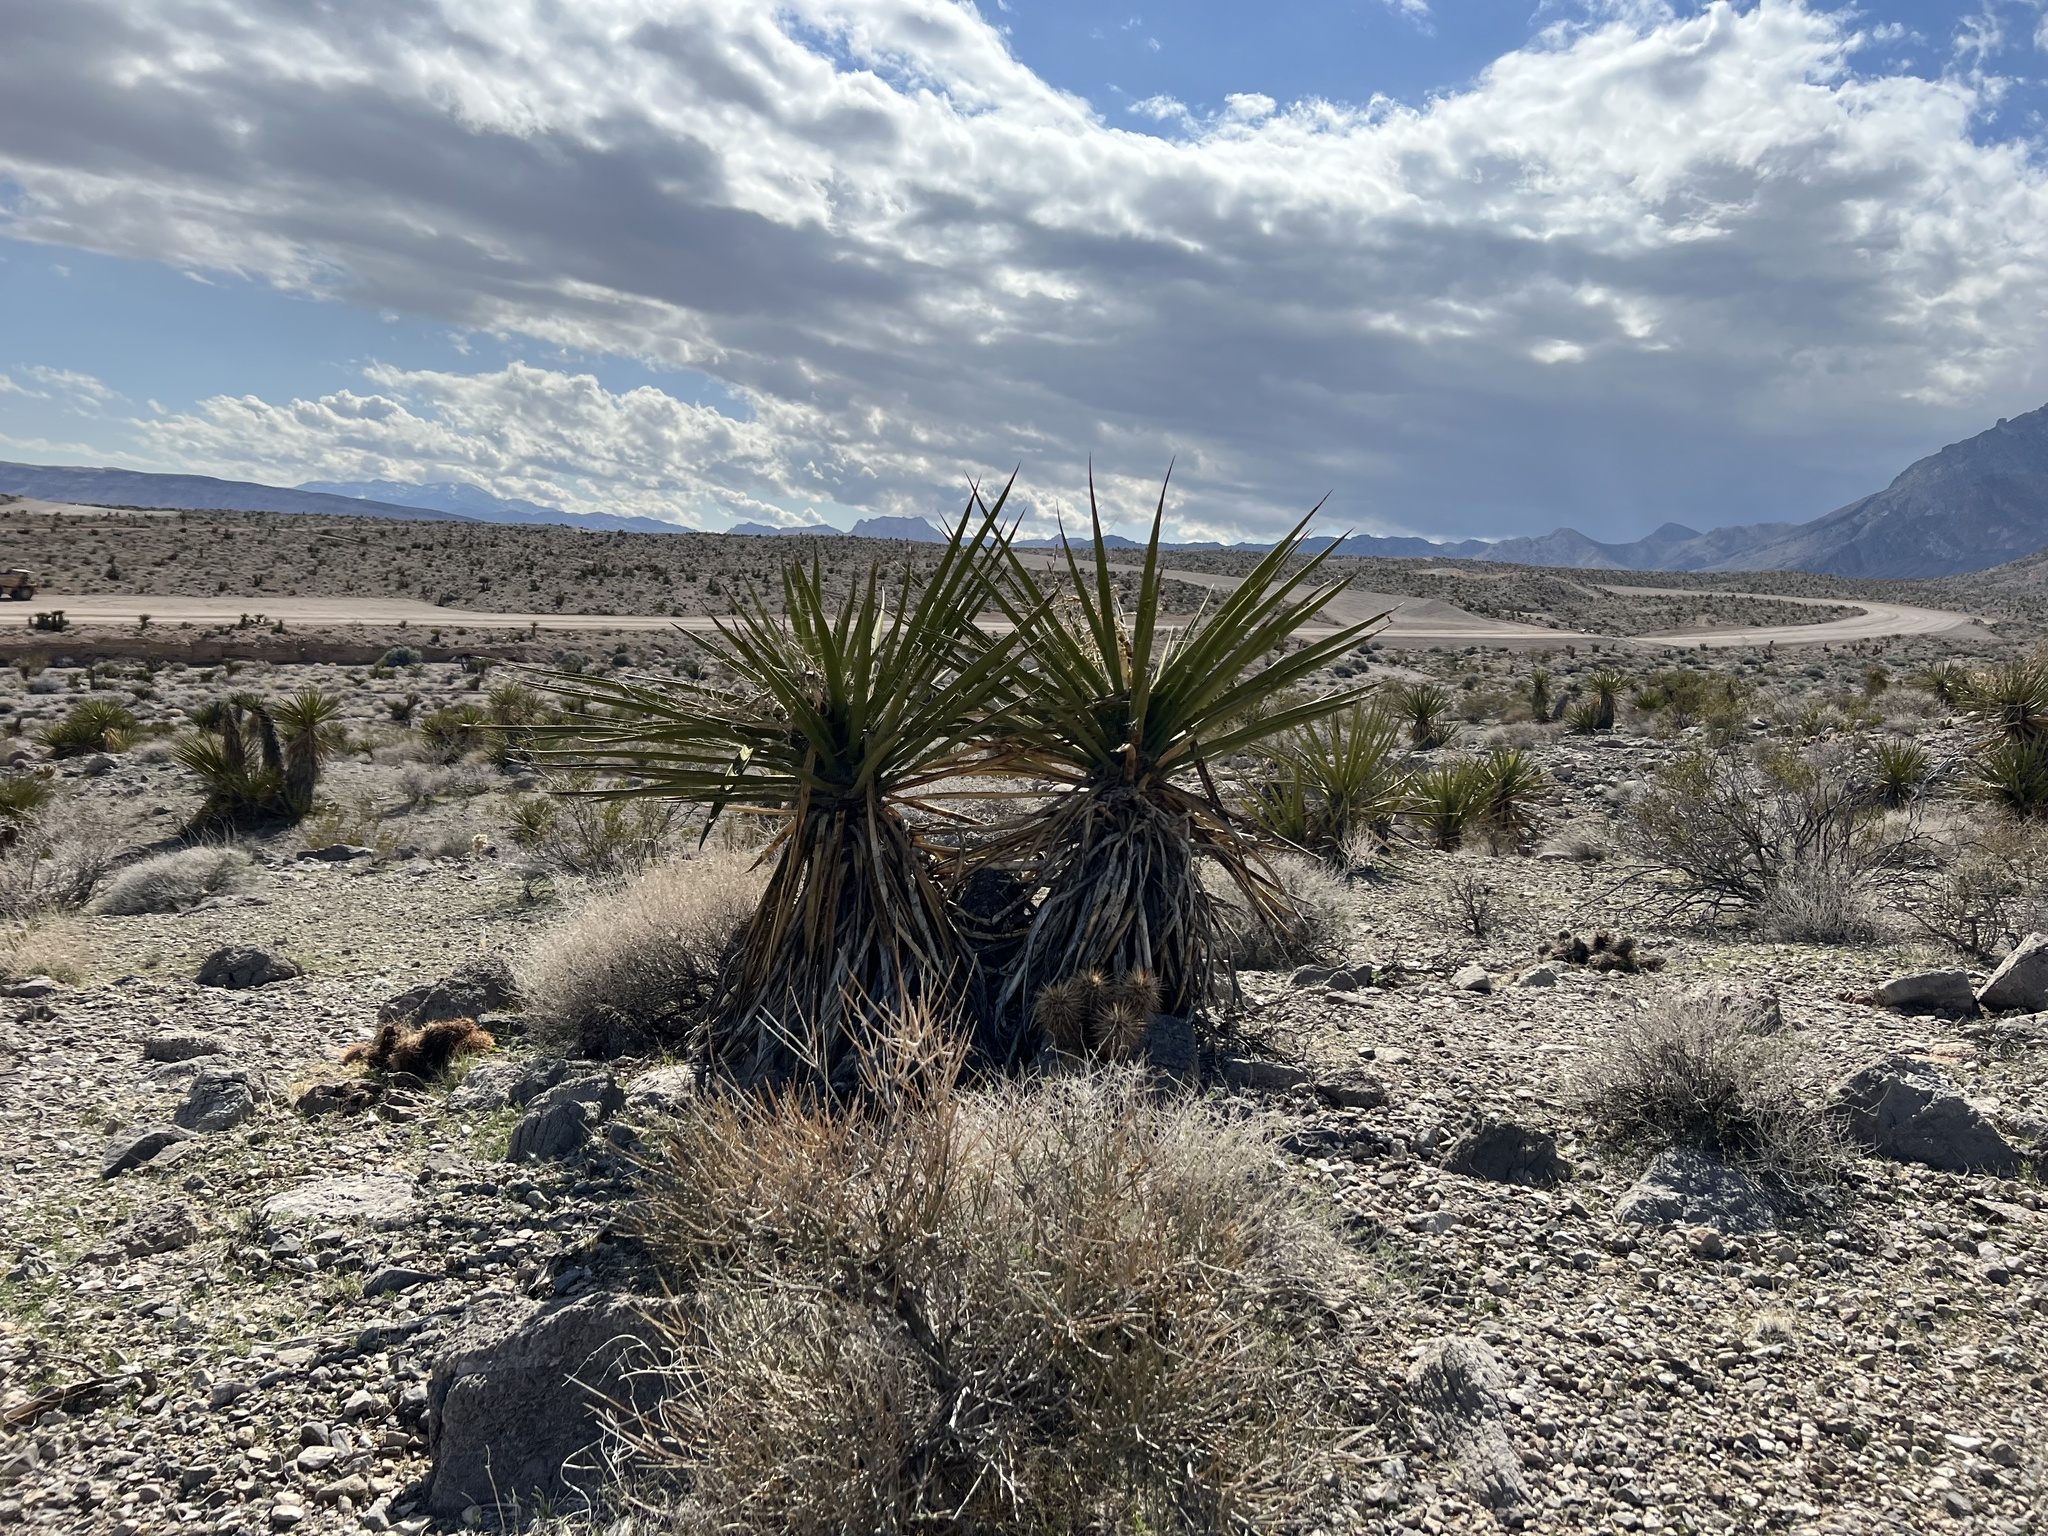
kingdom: Plantae
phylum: Tracheophyta
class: Liliopsida
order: Asparagales
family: Asparagaceae
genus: Yucca
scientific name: Yucca schidigera
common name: Mojave yucca
